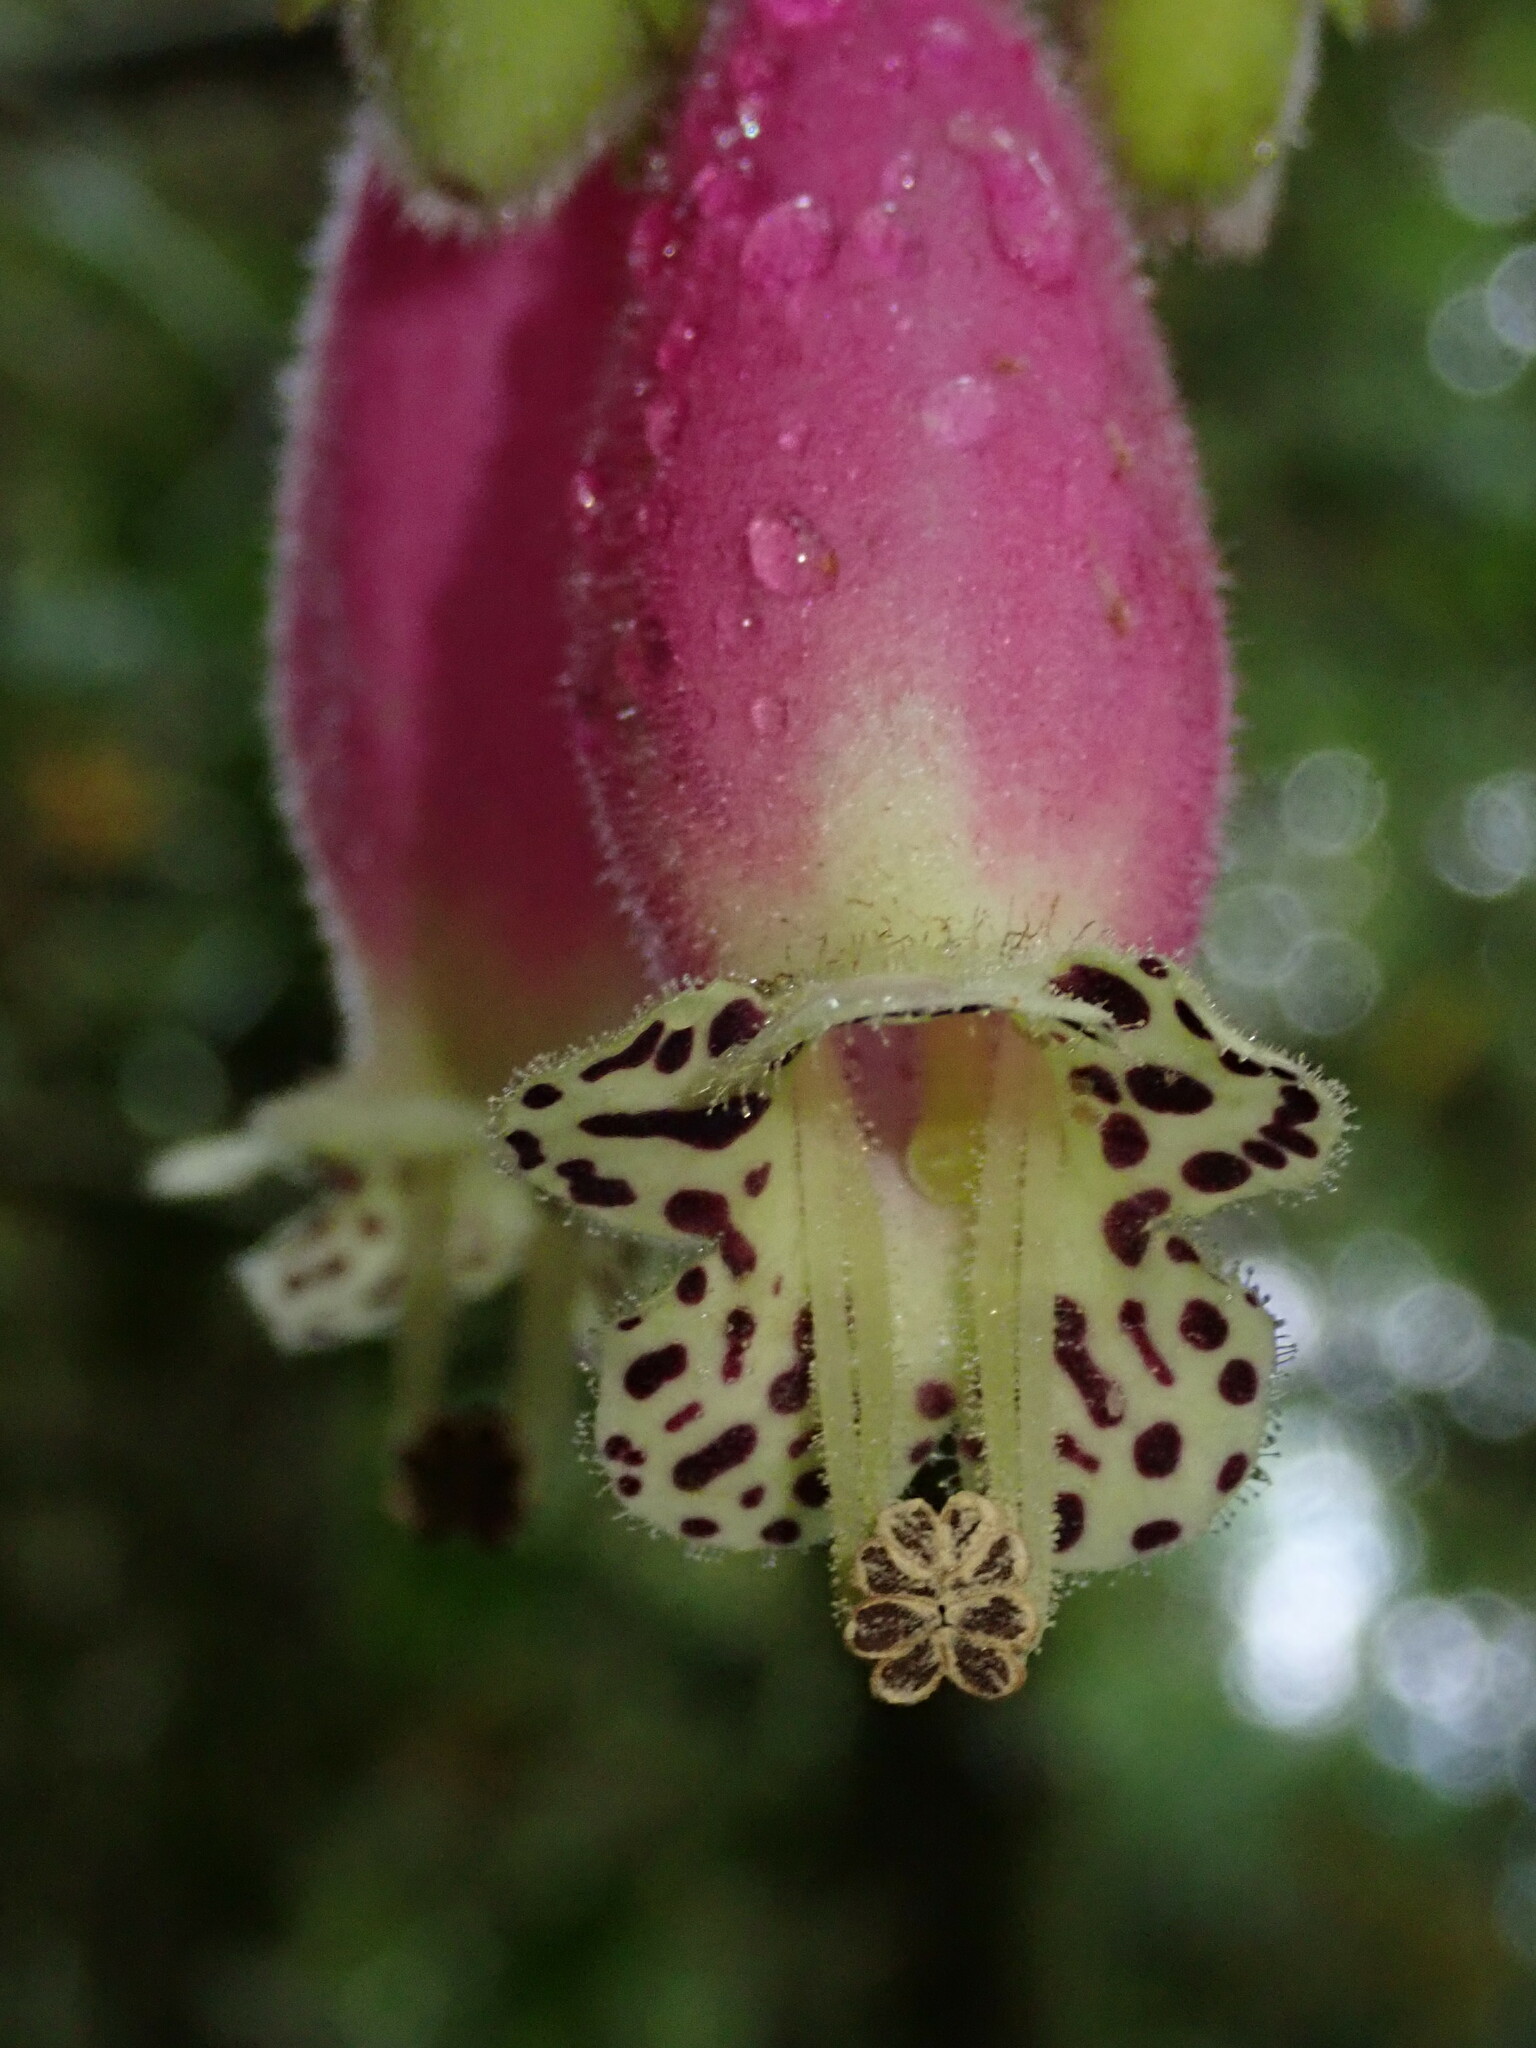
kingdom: Plantae
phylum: Tracheophyta
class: Magnoliopsida
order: Lamiales
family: Gesneriaceae
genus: Kohleria
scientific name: Kohleria affinis
